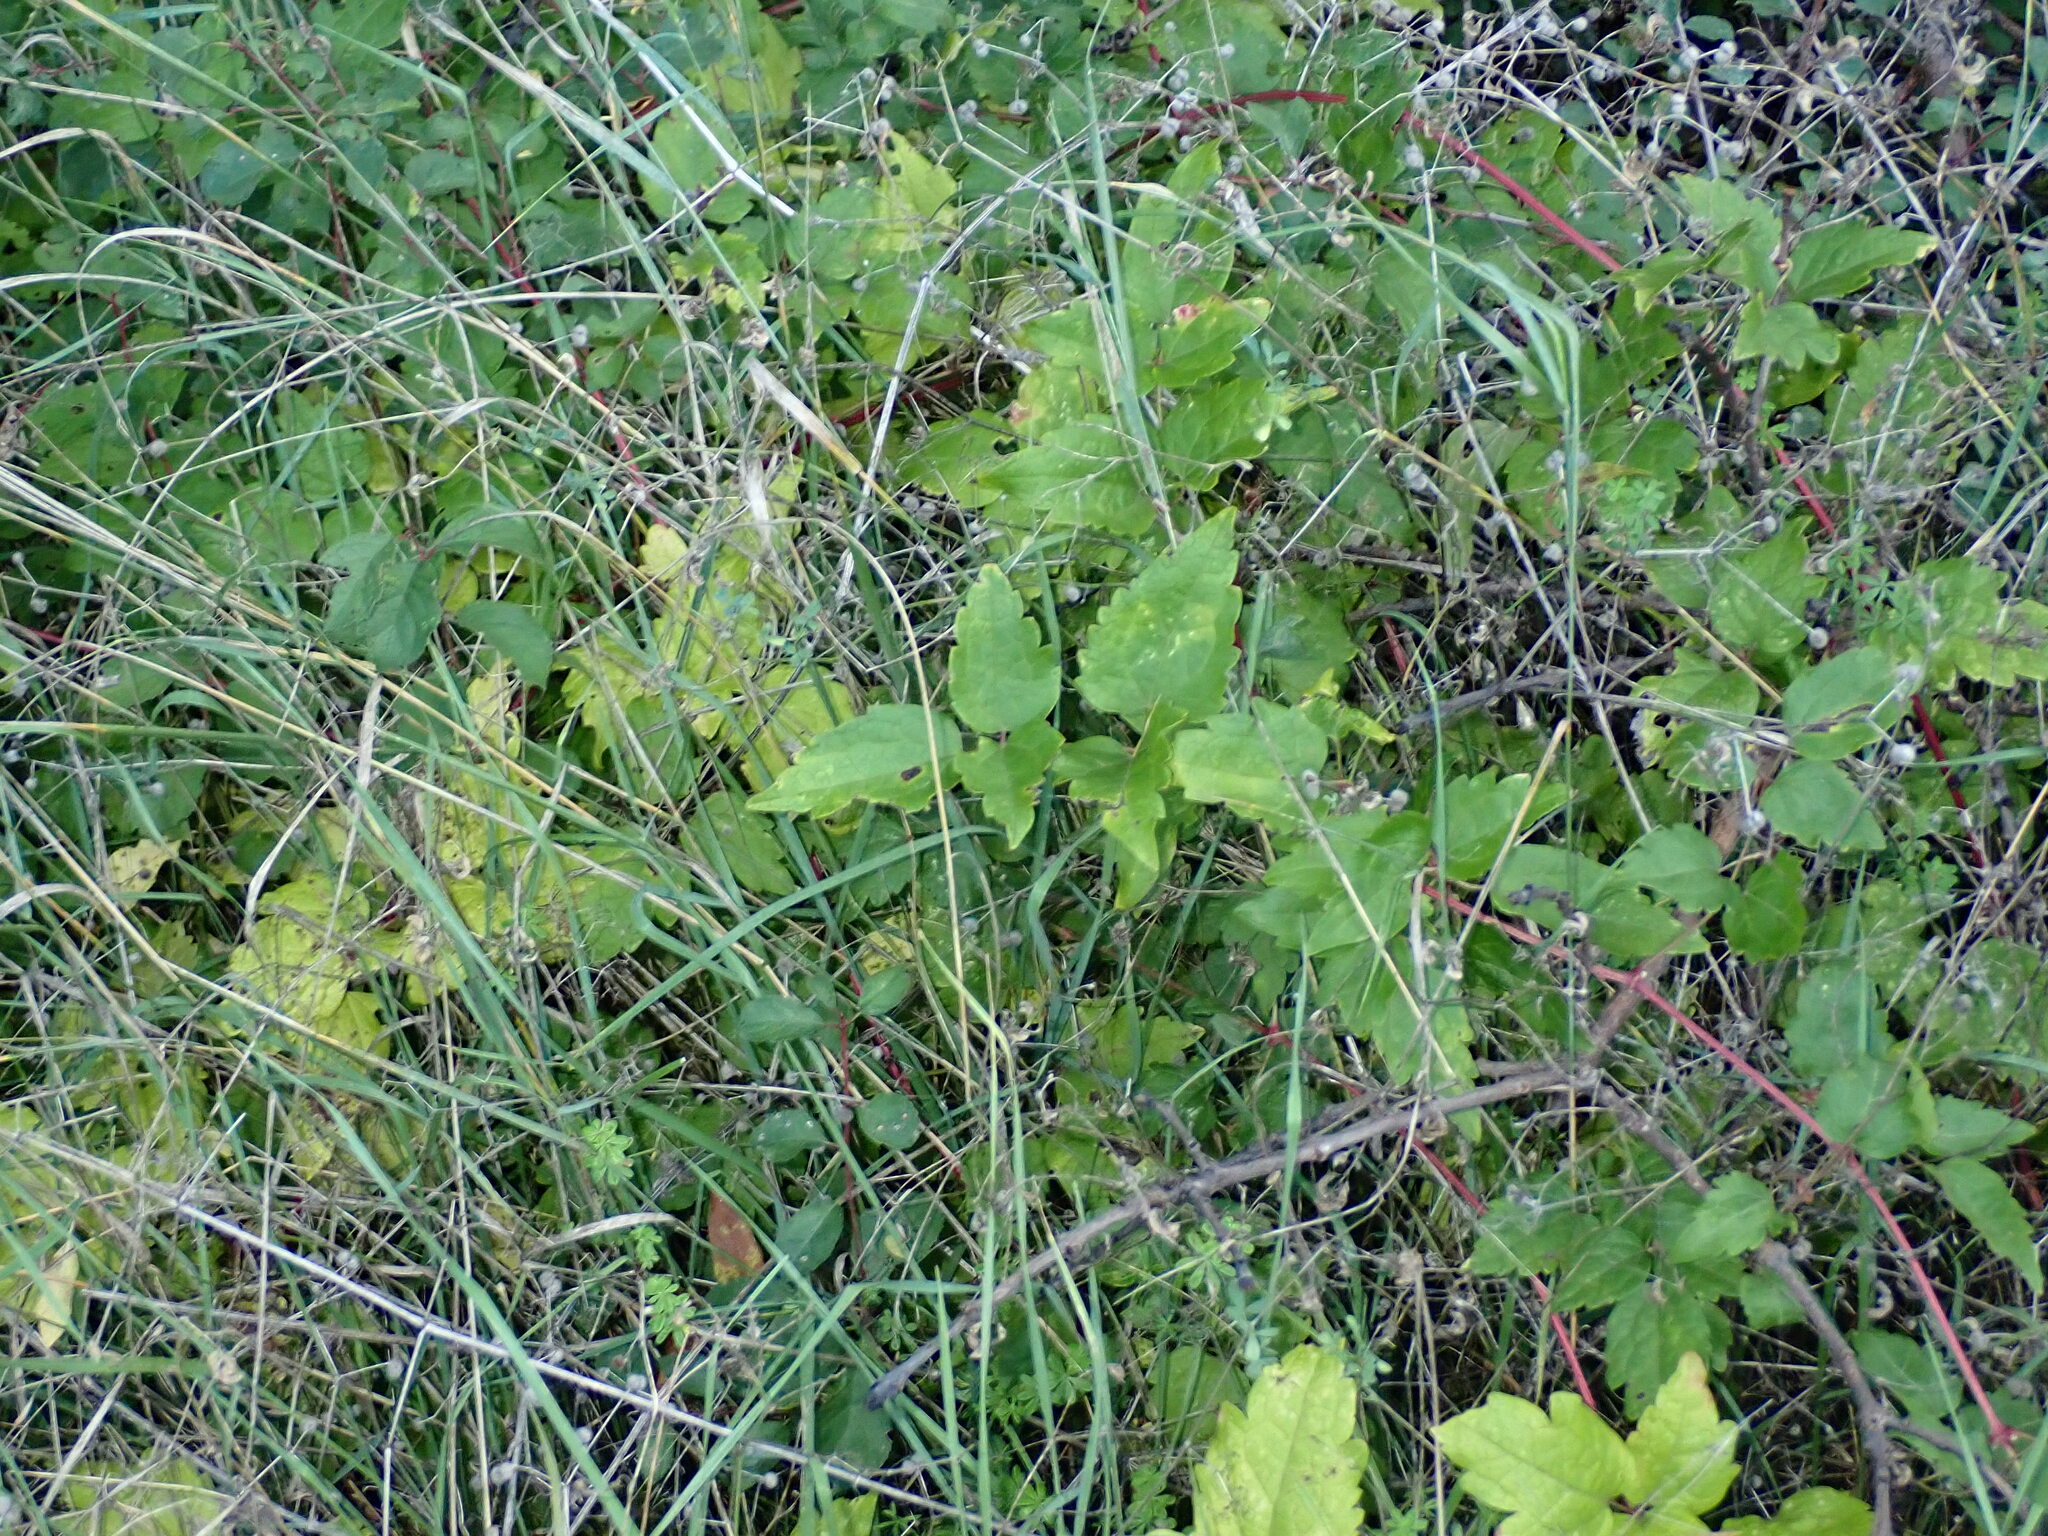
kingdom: Plantae
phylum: Tracheophyta
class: Magnoliopsida
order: Ranunculales
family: Ranunculaceae
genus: Clematis
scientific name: Clematis vitalba
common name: Evergreen clematis
